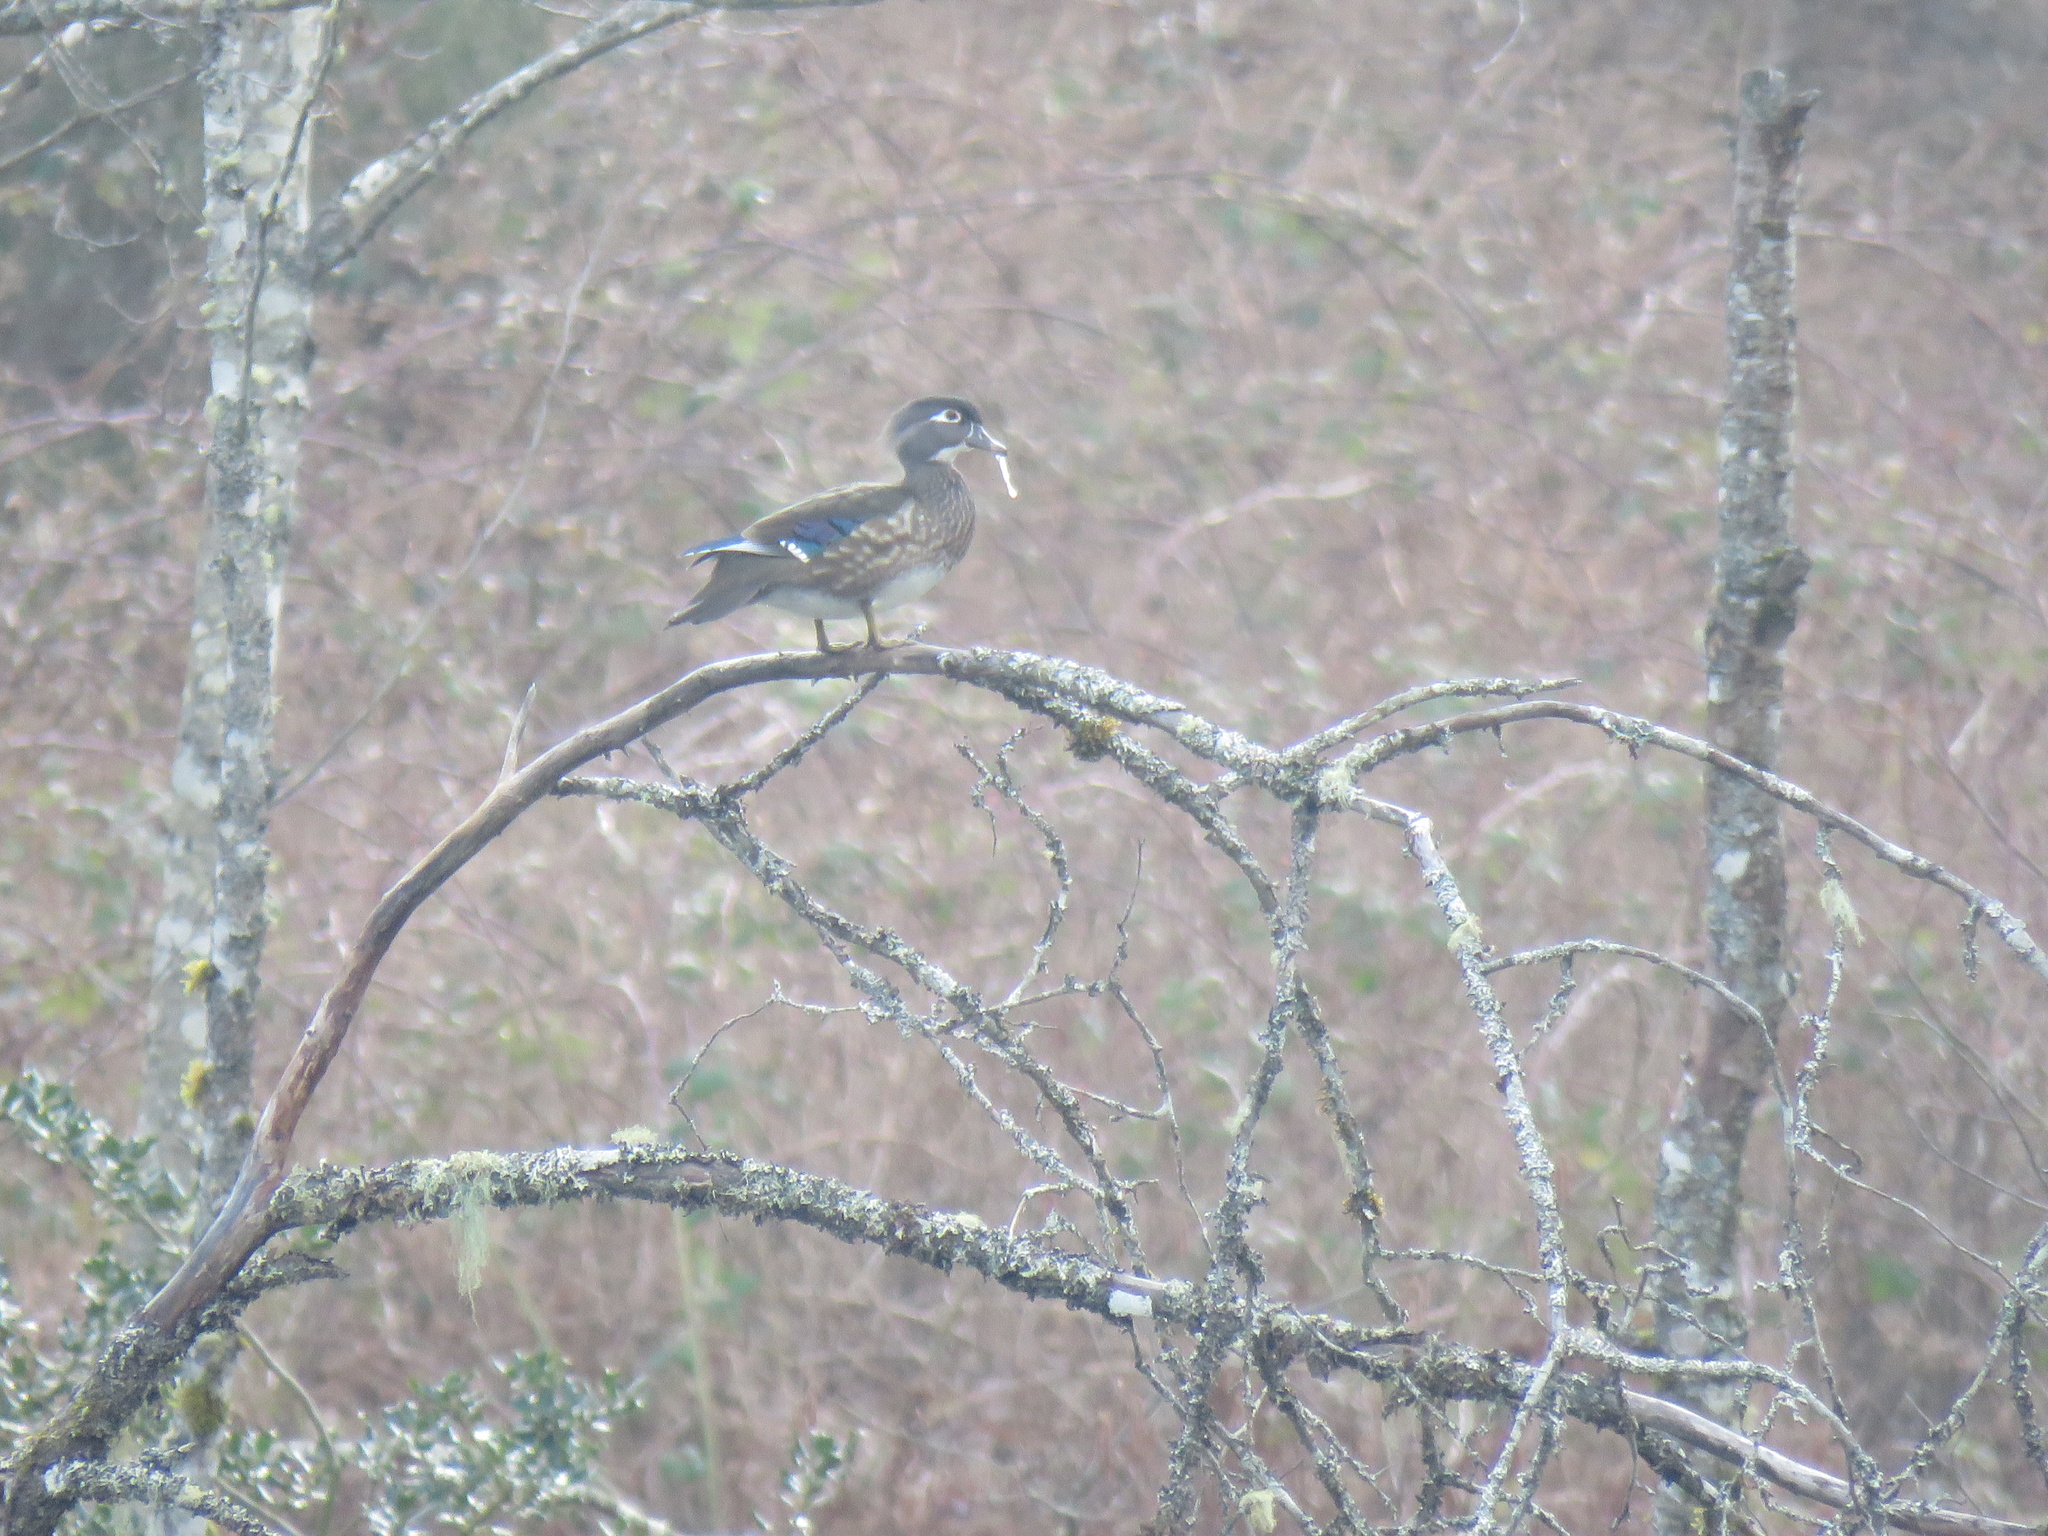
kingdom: Animalia
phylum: Chordata
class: Aves
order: Anseriformes
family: Anatidae
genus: Aix
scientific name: Aix sponsa
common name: Wood duck
